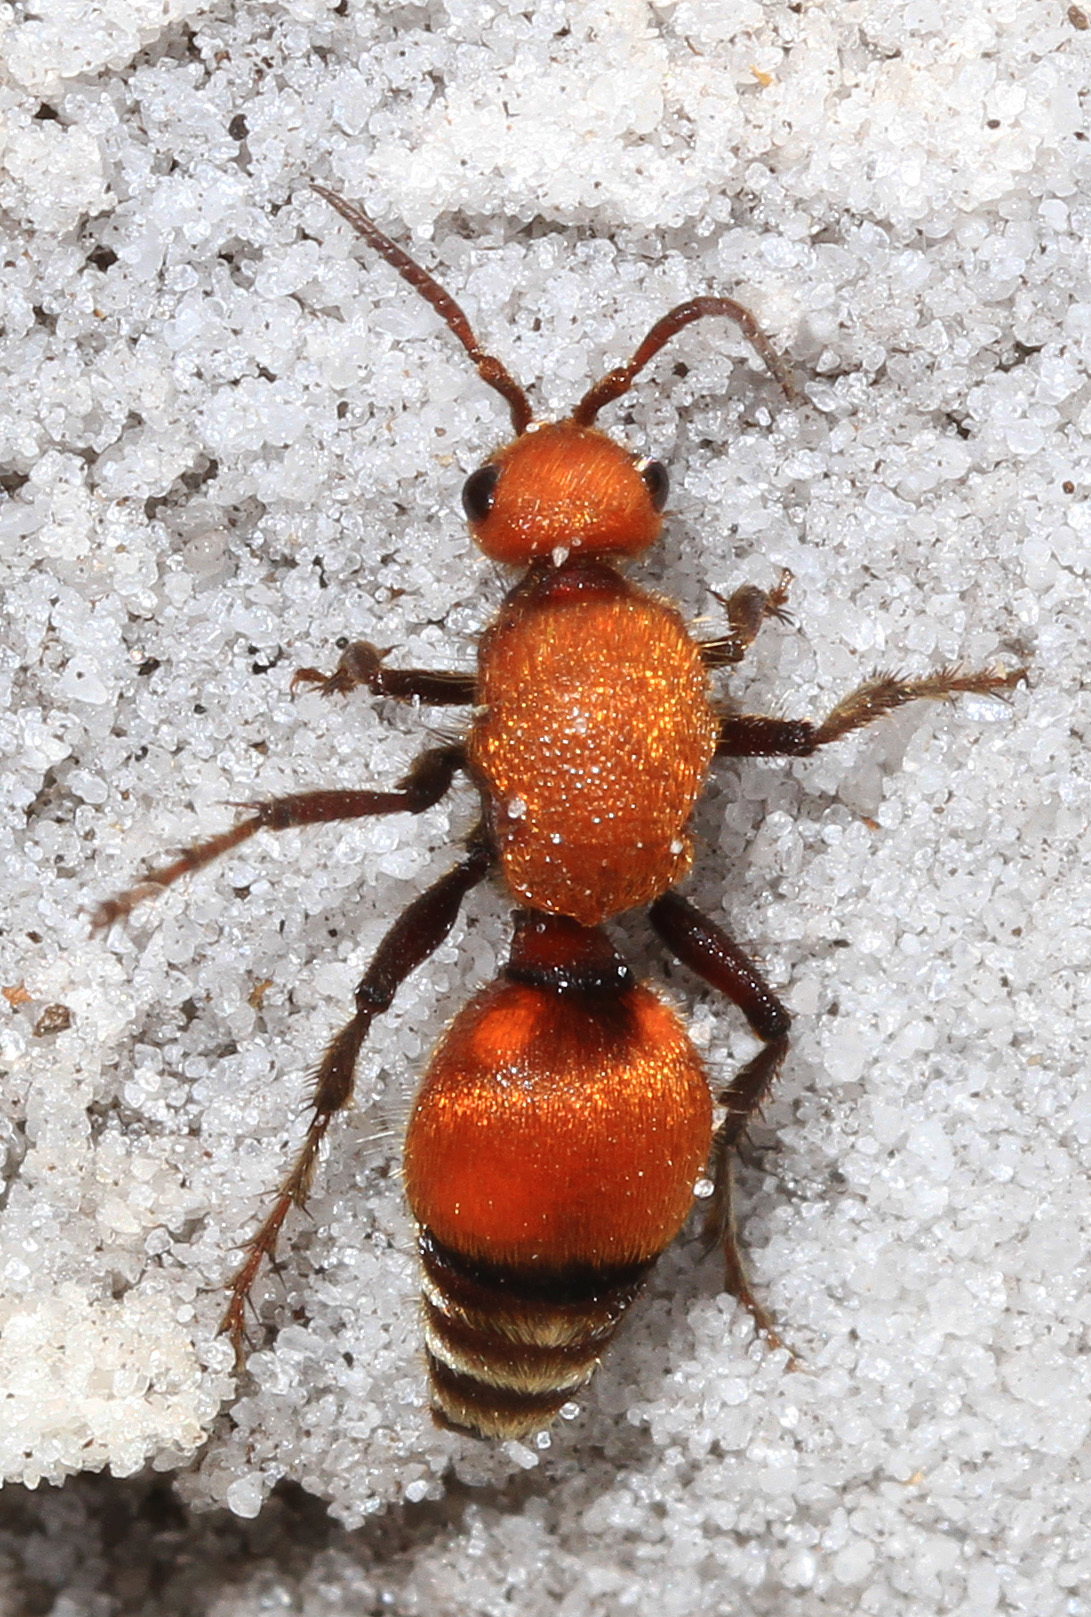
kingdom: Animalia
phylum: Arthropoda
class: Insecta
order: Hymenoptera
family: Mutillidae
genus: Dasymutilla
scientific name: Dasymutilla
